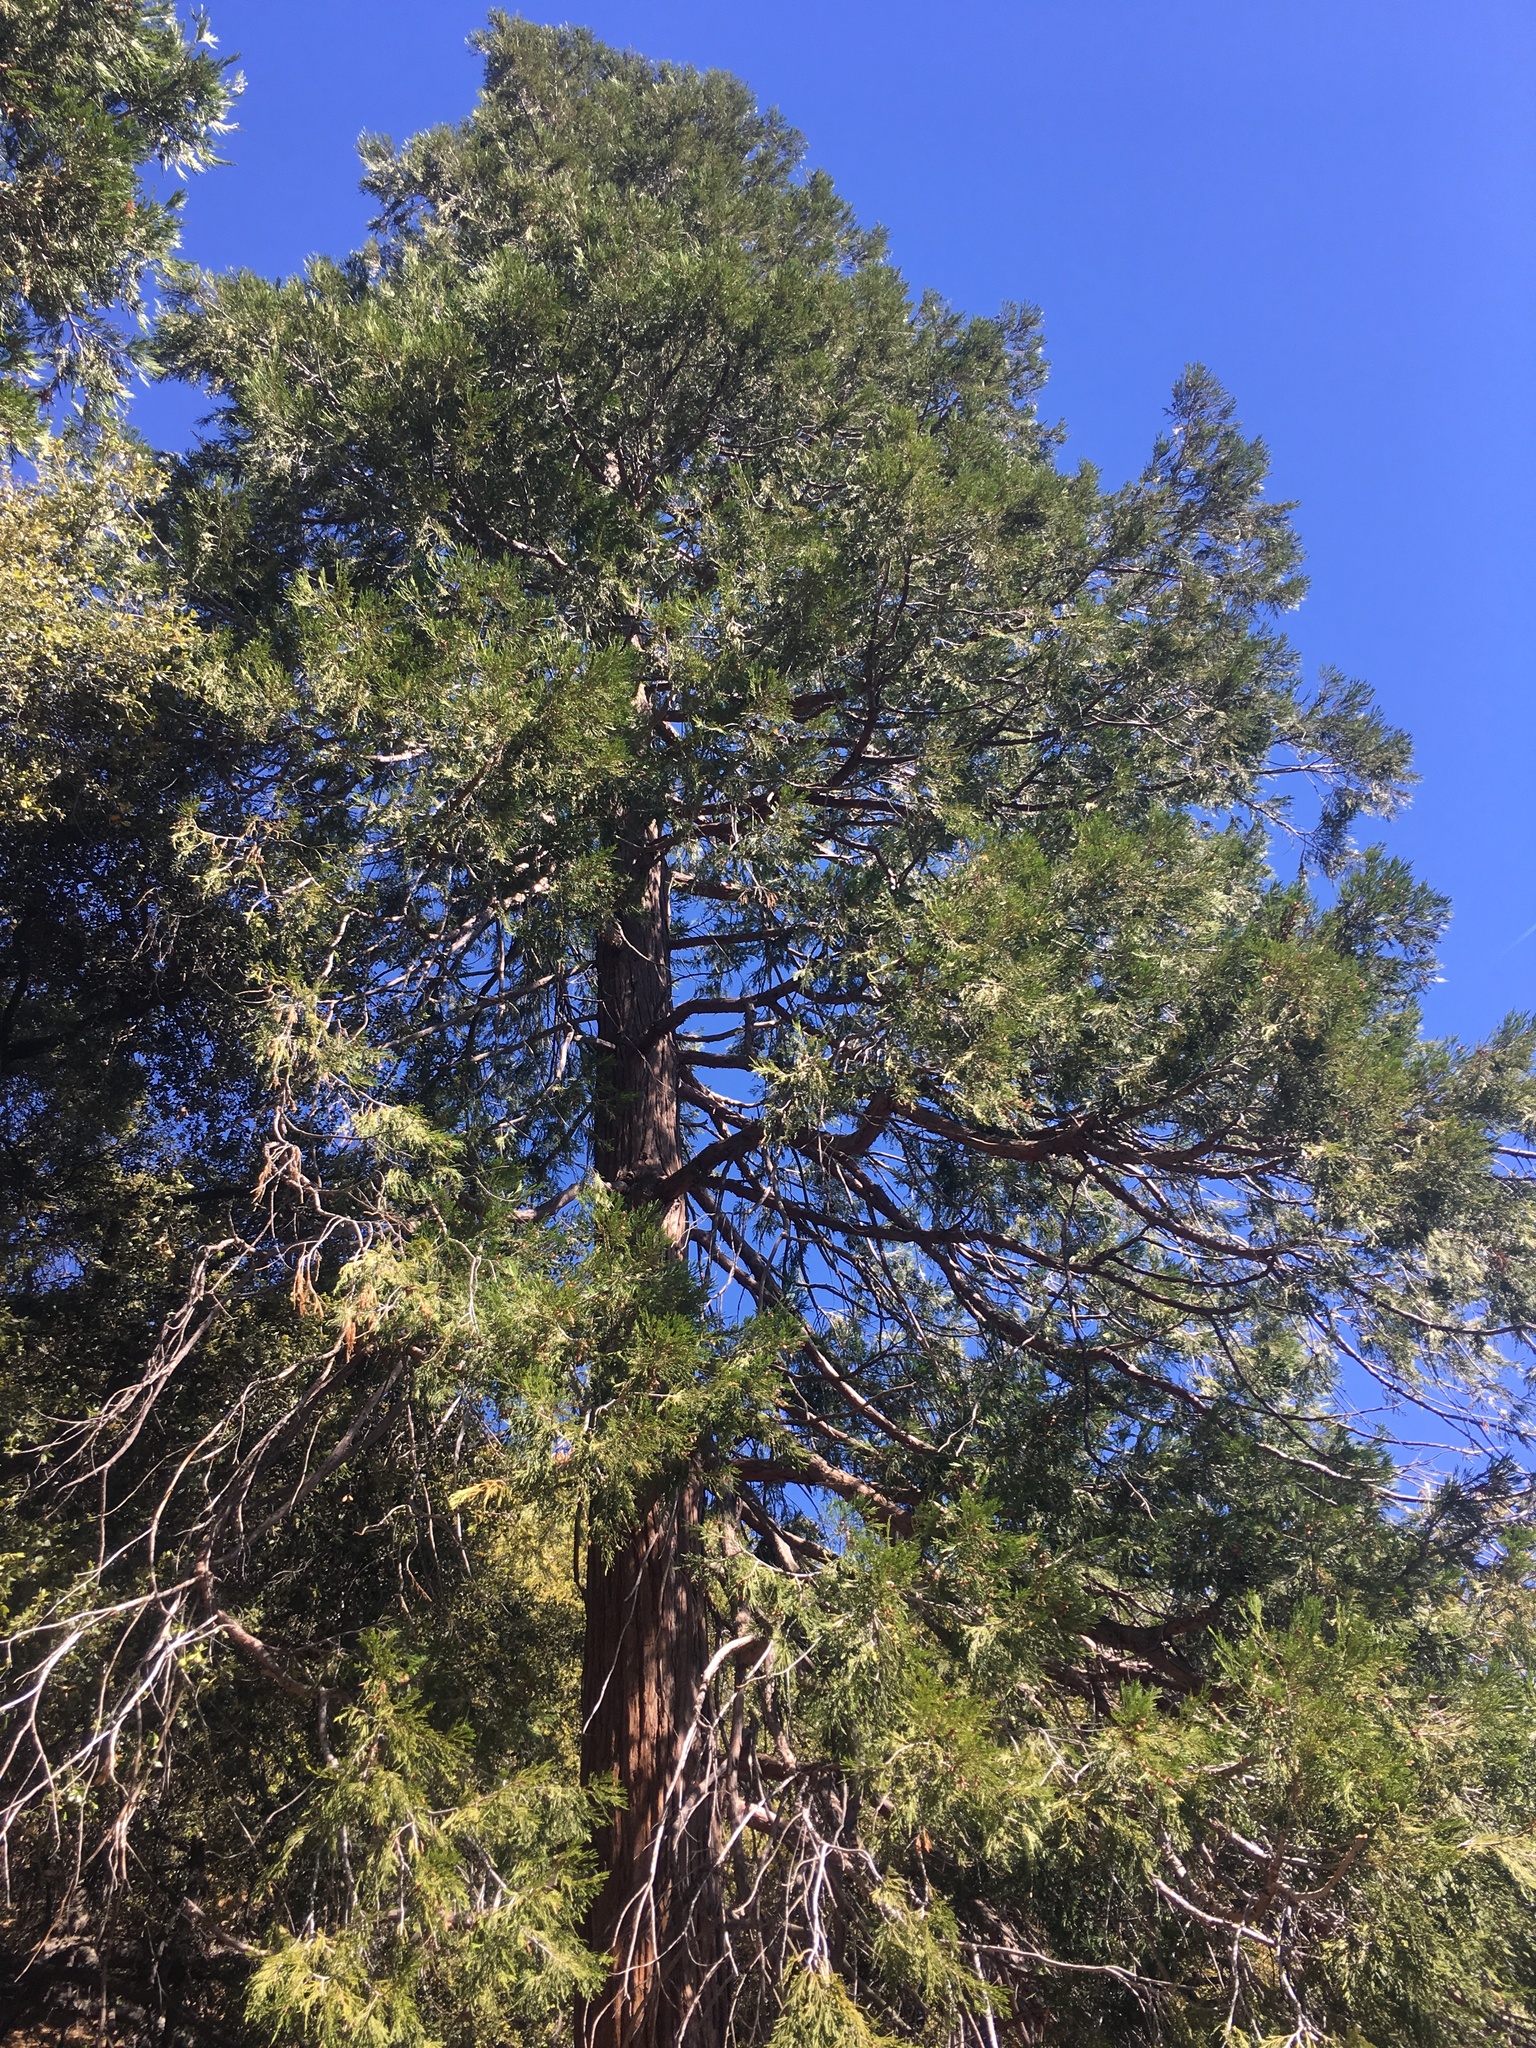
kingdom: Plantae
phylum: Tracheophyta
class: Pinopsida
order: Pinales
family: Cupressaceae
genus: Calocedrus
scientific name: Calocedrus decurrens
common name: Californian incense-cedar
